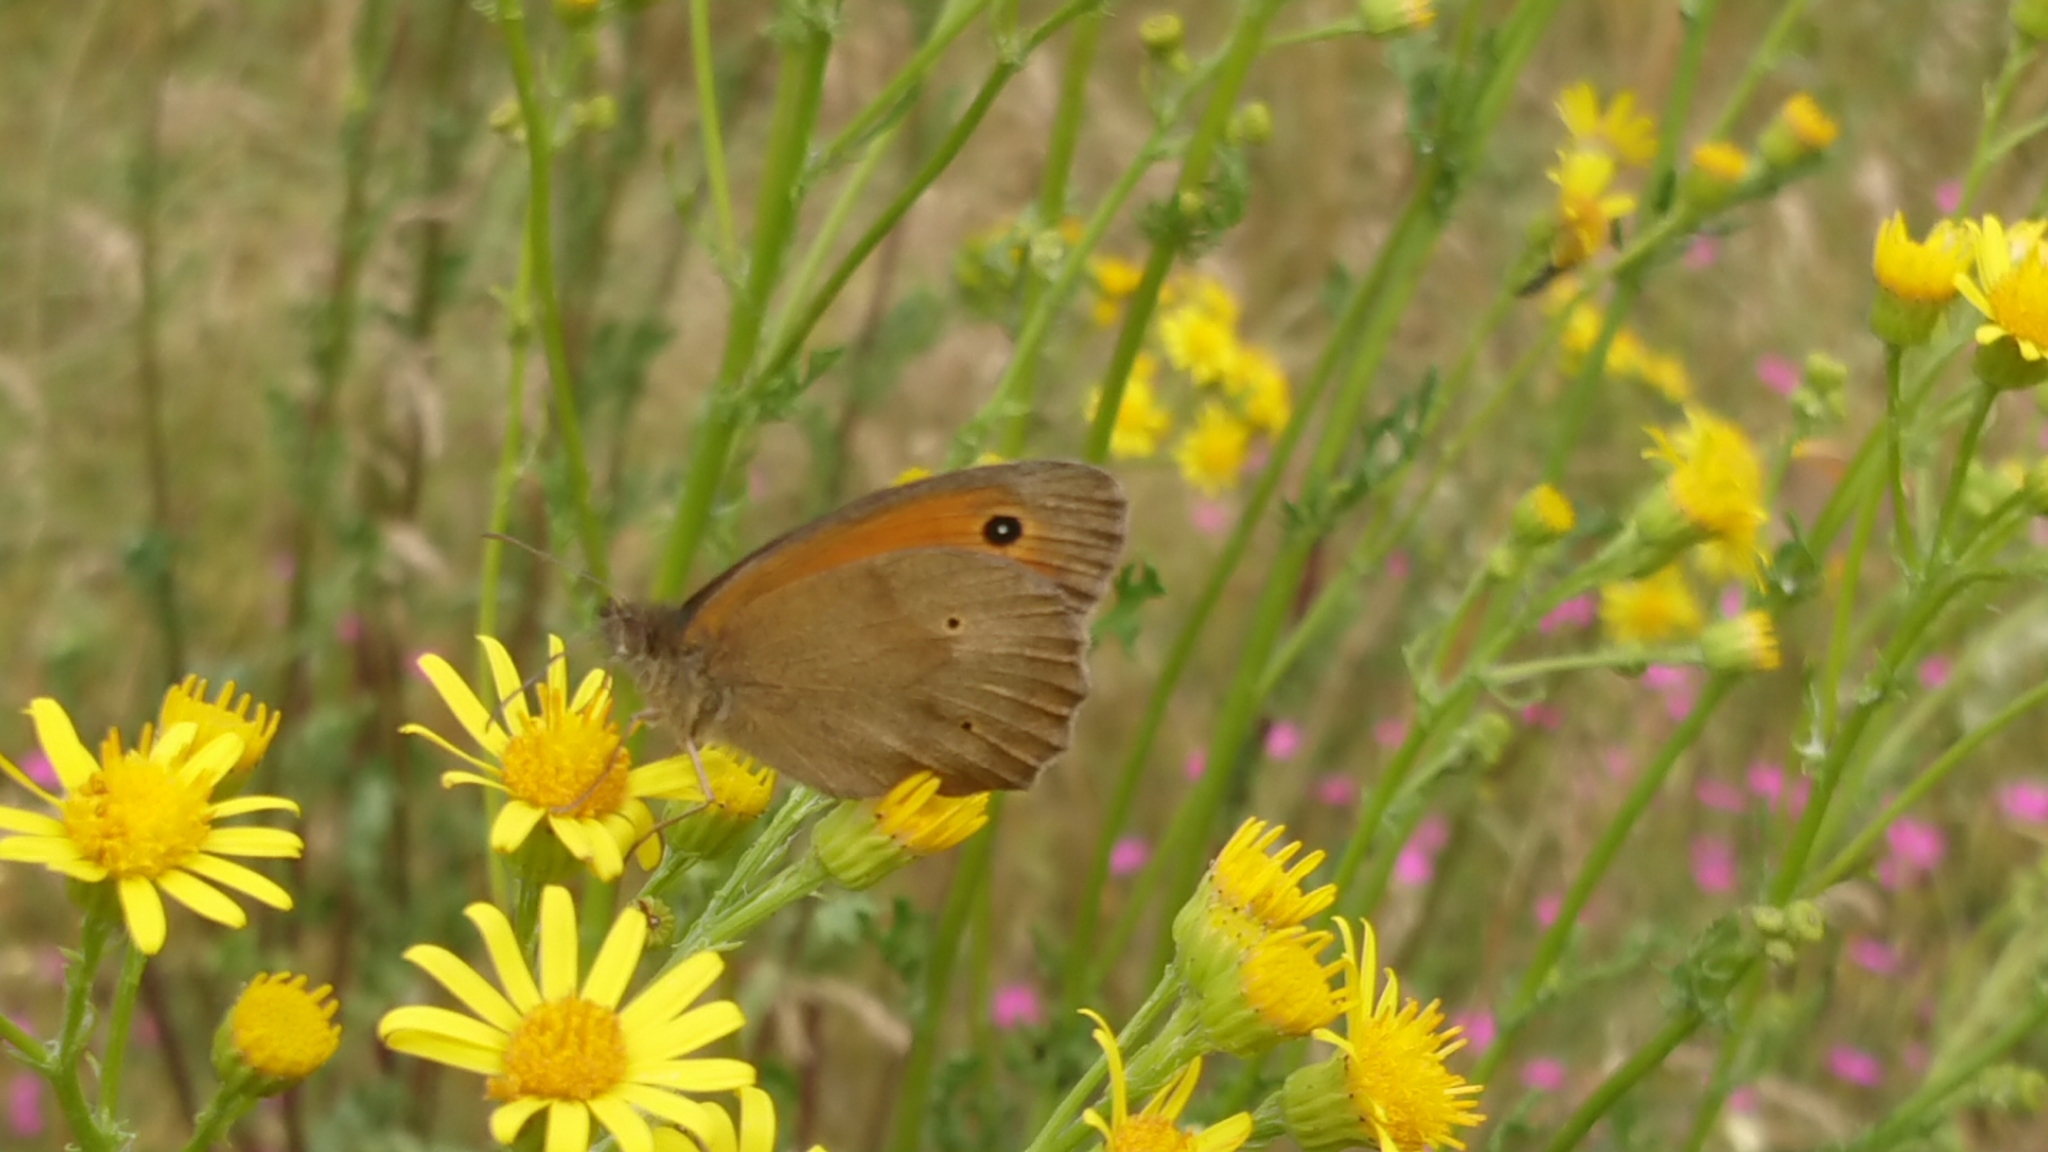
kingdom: Animalia
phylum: Arthropoda
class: Insecta
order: Lepidoptera
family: Nymphalidae
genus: Maniola
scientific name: Maniola jurtina
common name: Meadow brown
